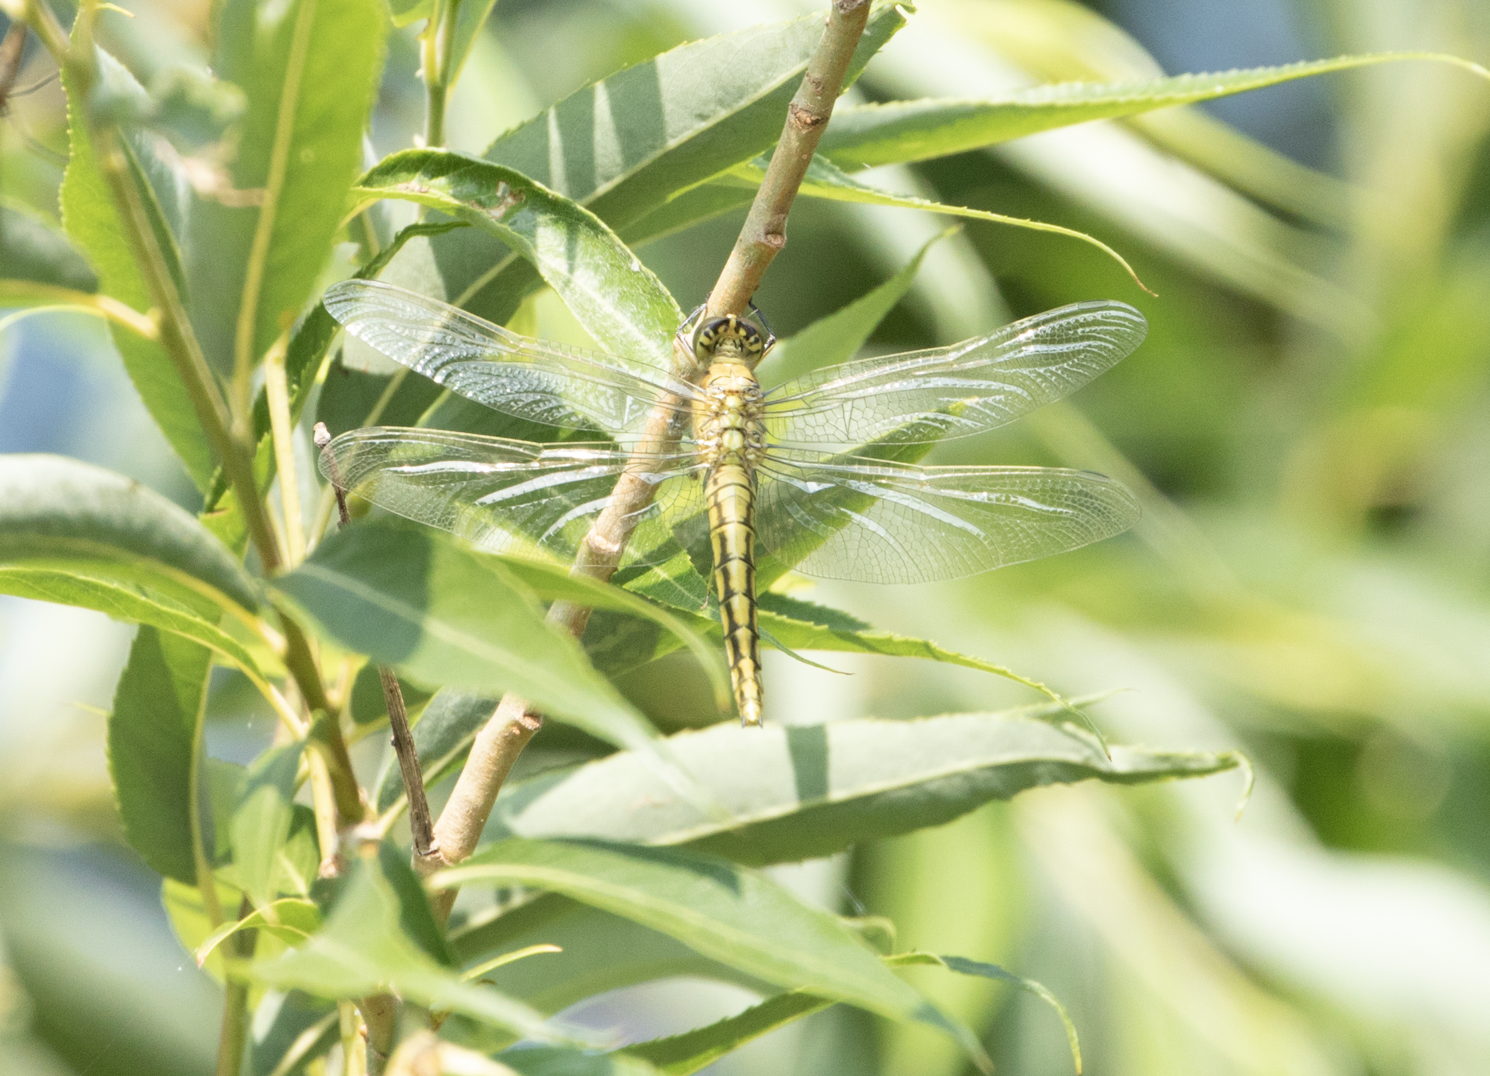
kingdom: Animalia
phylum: Arthropoda
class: Insecta
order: Odonata
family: Libellulidae
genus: Orthetrum
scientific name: Orthetrum cancellatum
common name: Black-tailed skimmer
